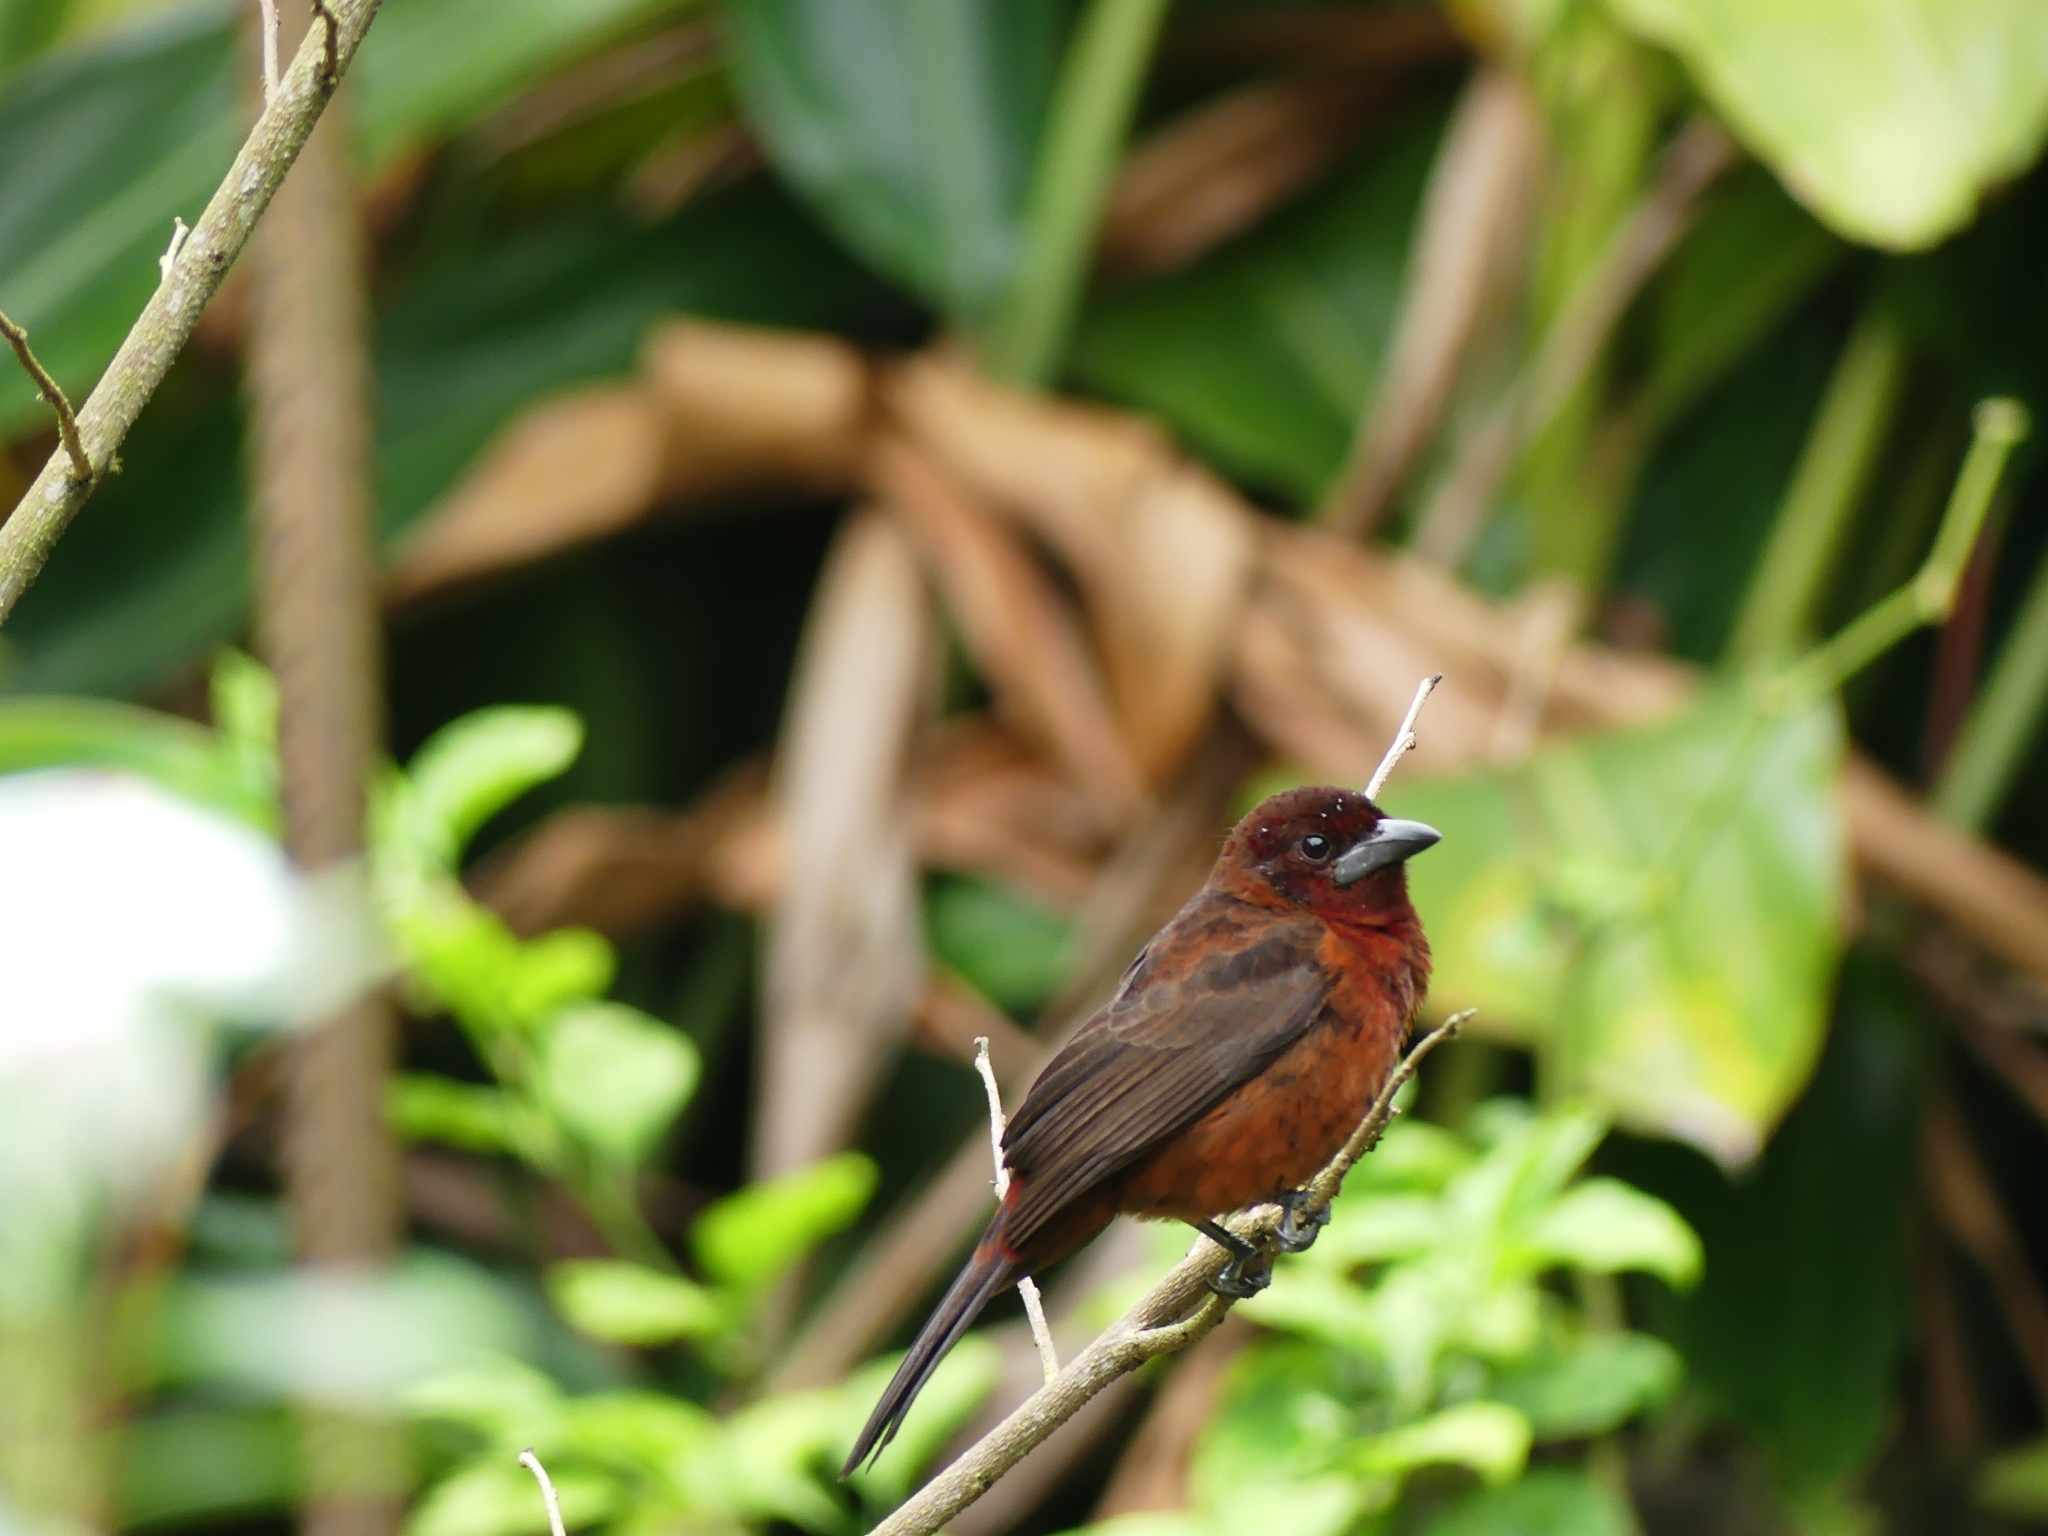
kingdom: Animalia
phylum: Chordata
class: Aves
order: Passeriformes
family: Thraupidae
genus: Ramphocelus
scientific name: Ramphocelus carbo
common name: Silver-beaked tanager
